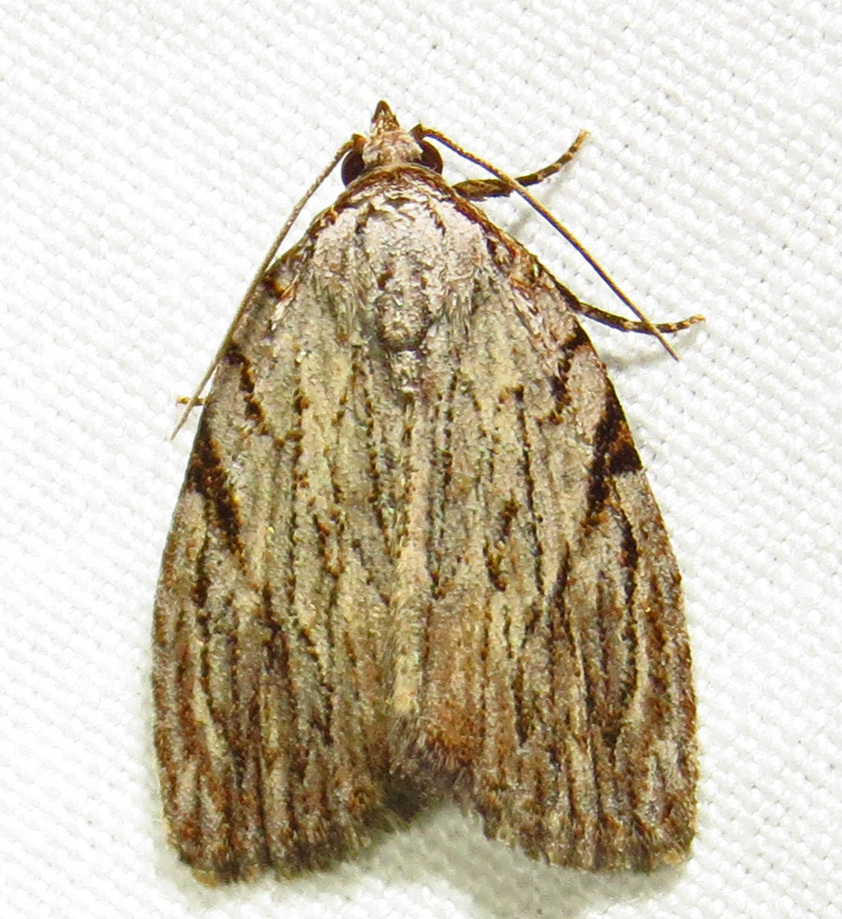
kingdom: Animalia
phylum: Arthropoda
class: Insecta
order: Lepidoptera
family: Noctuidae
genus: Balsa
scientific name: Balsa tristrigella
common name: Three-lined balsa moth
